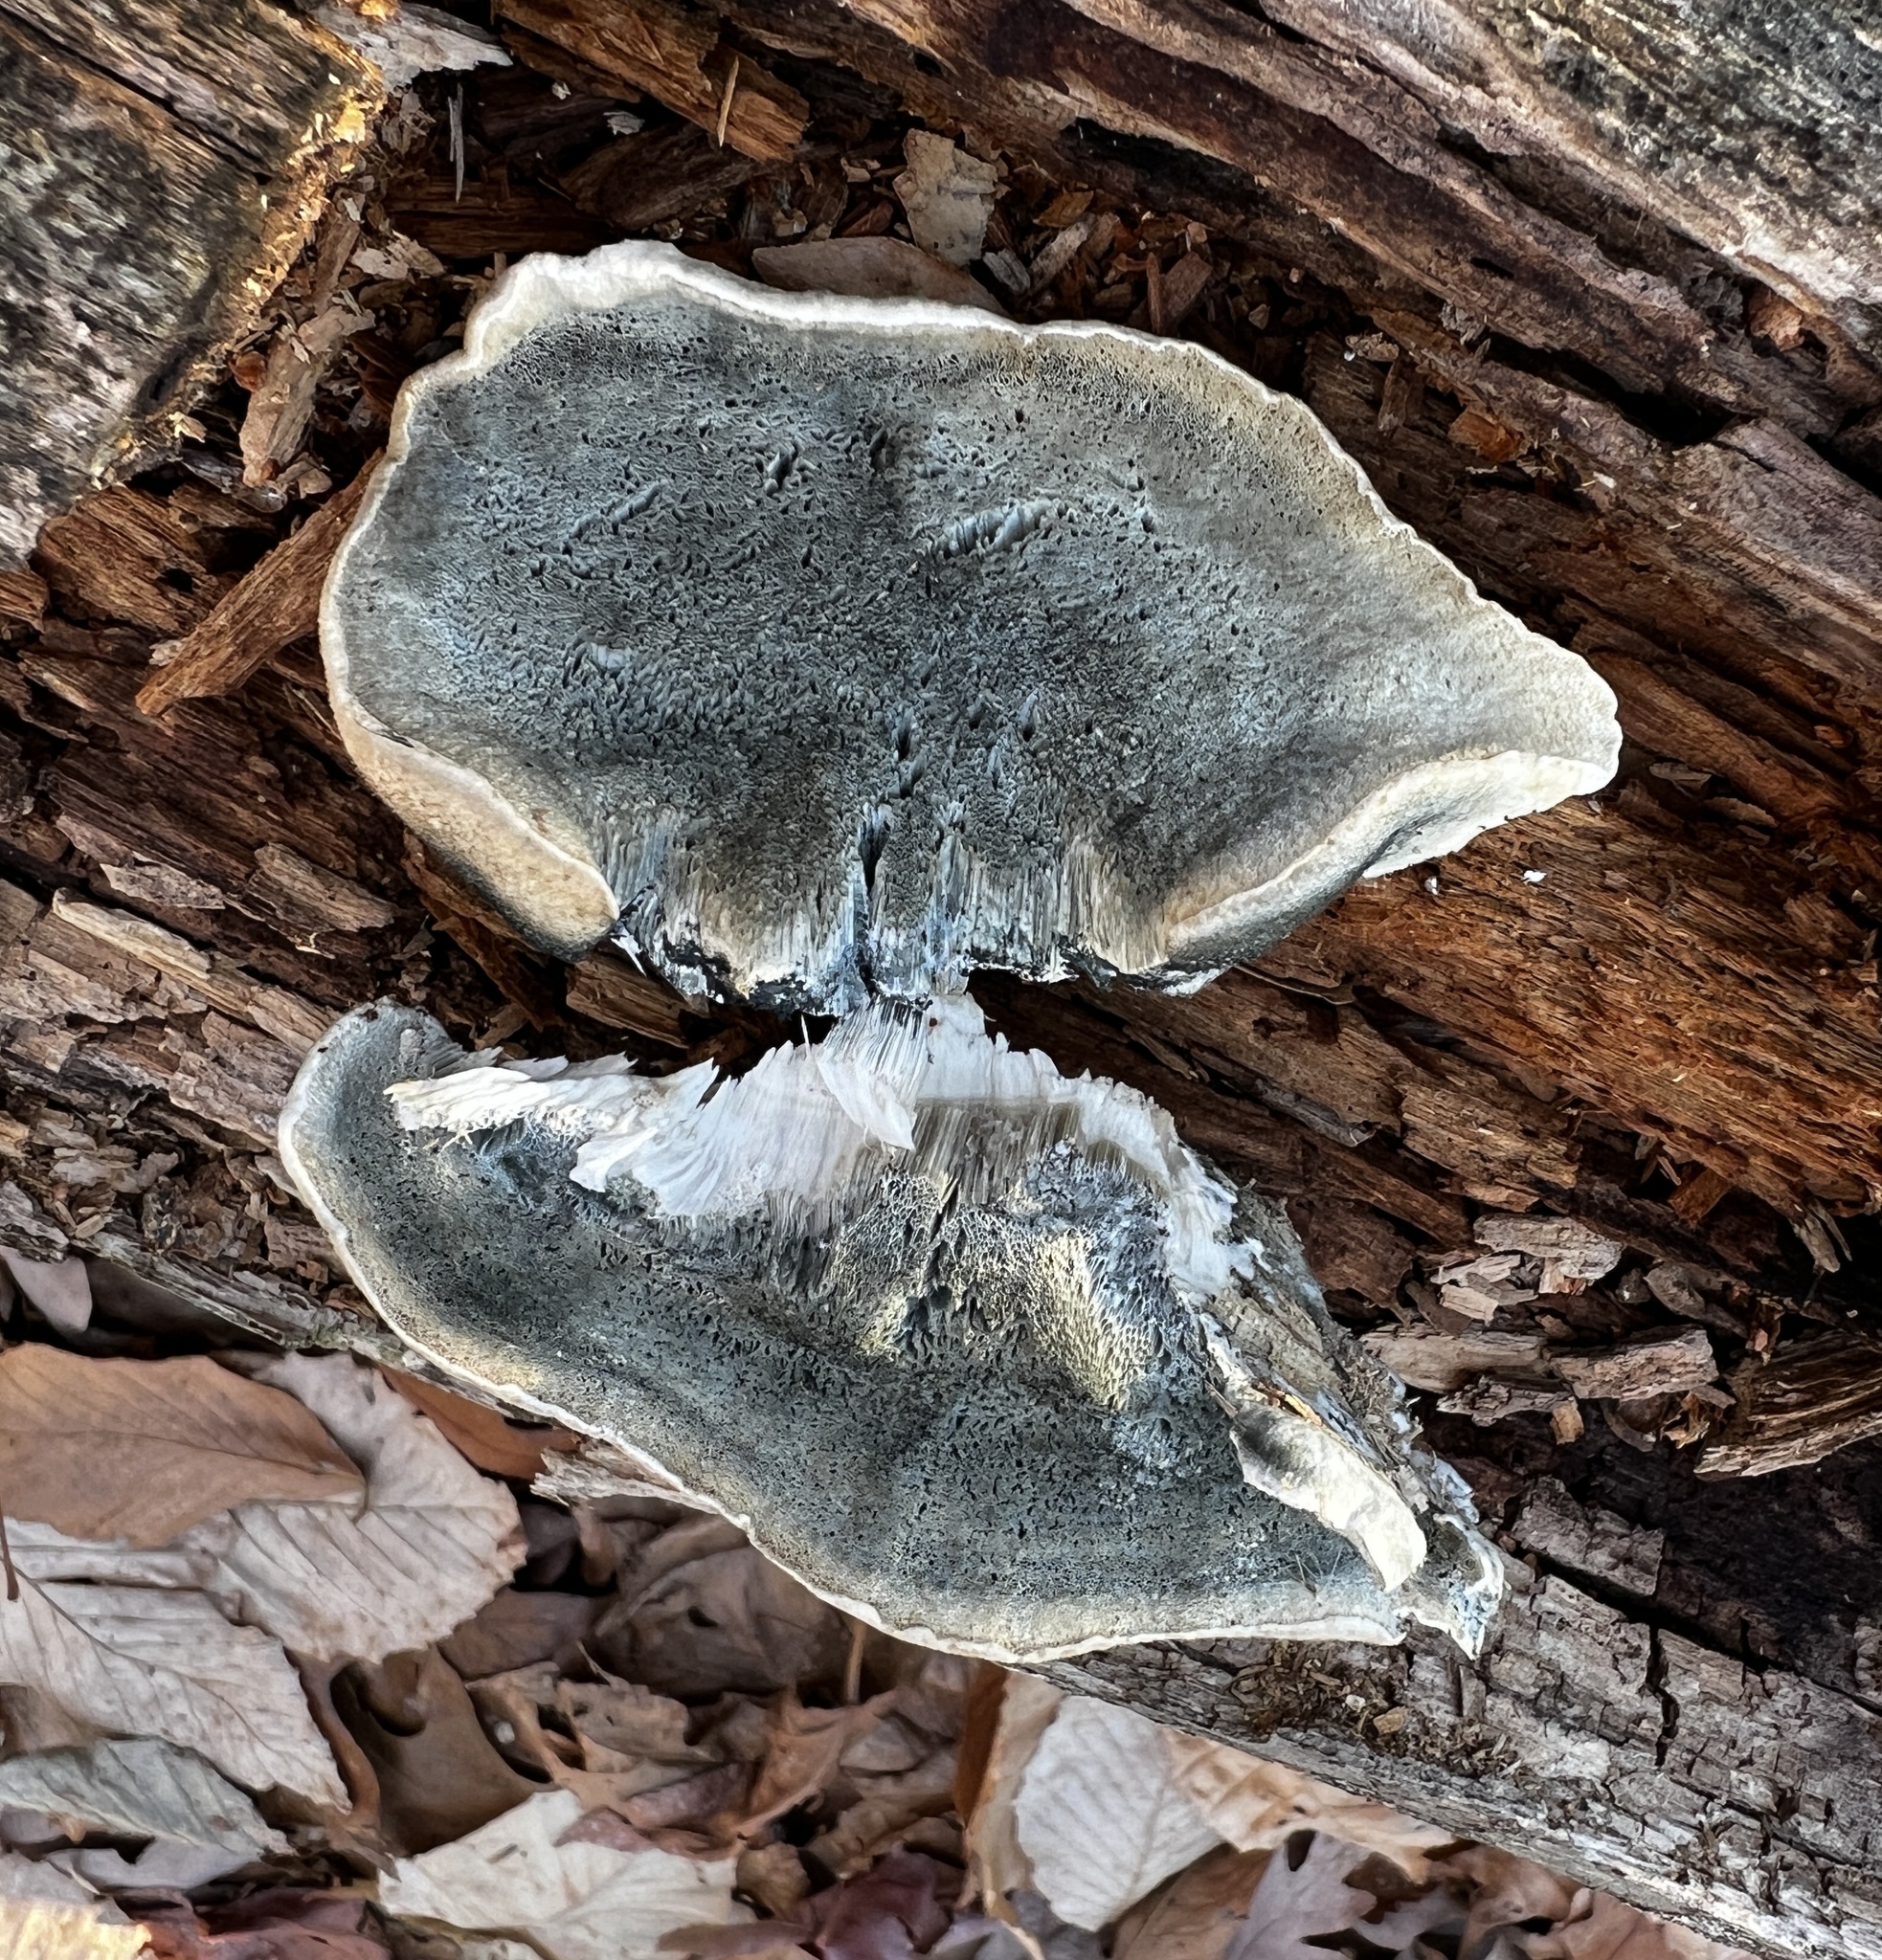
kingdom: Fungi
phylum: Basidiomycota
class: Agaricomycetes
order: Polyporales
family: Polyporaceae
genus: Cyanosporus
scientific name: Cyanosporus livens
